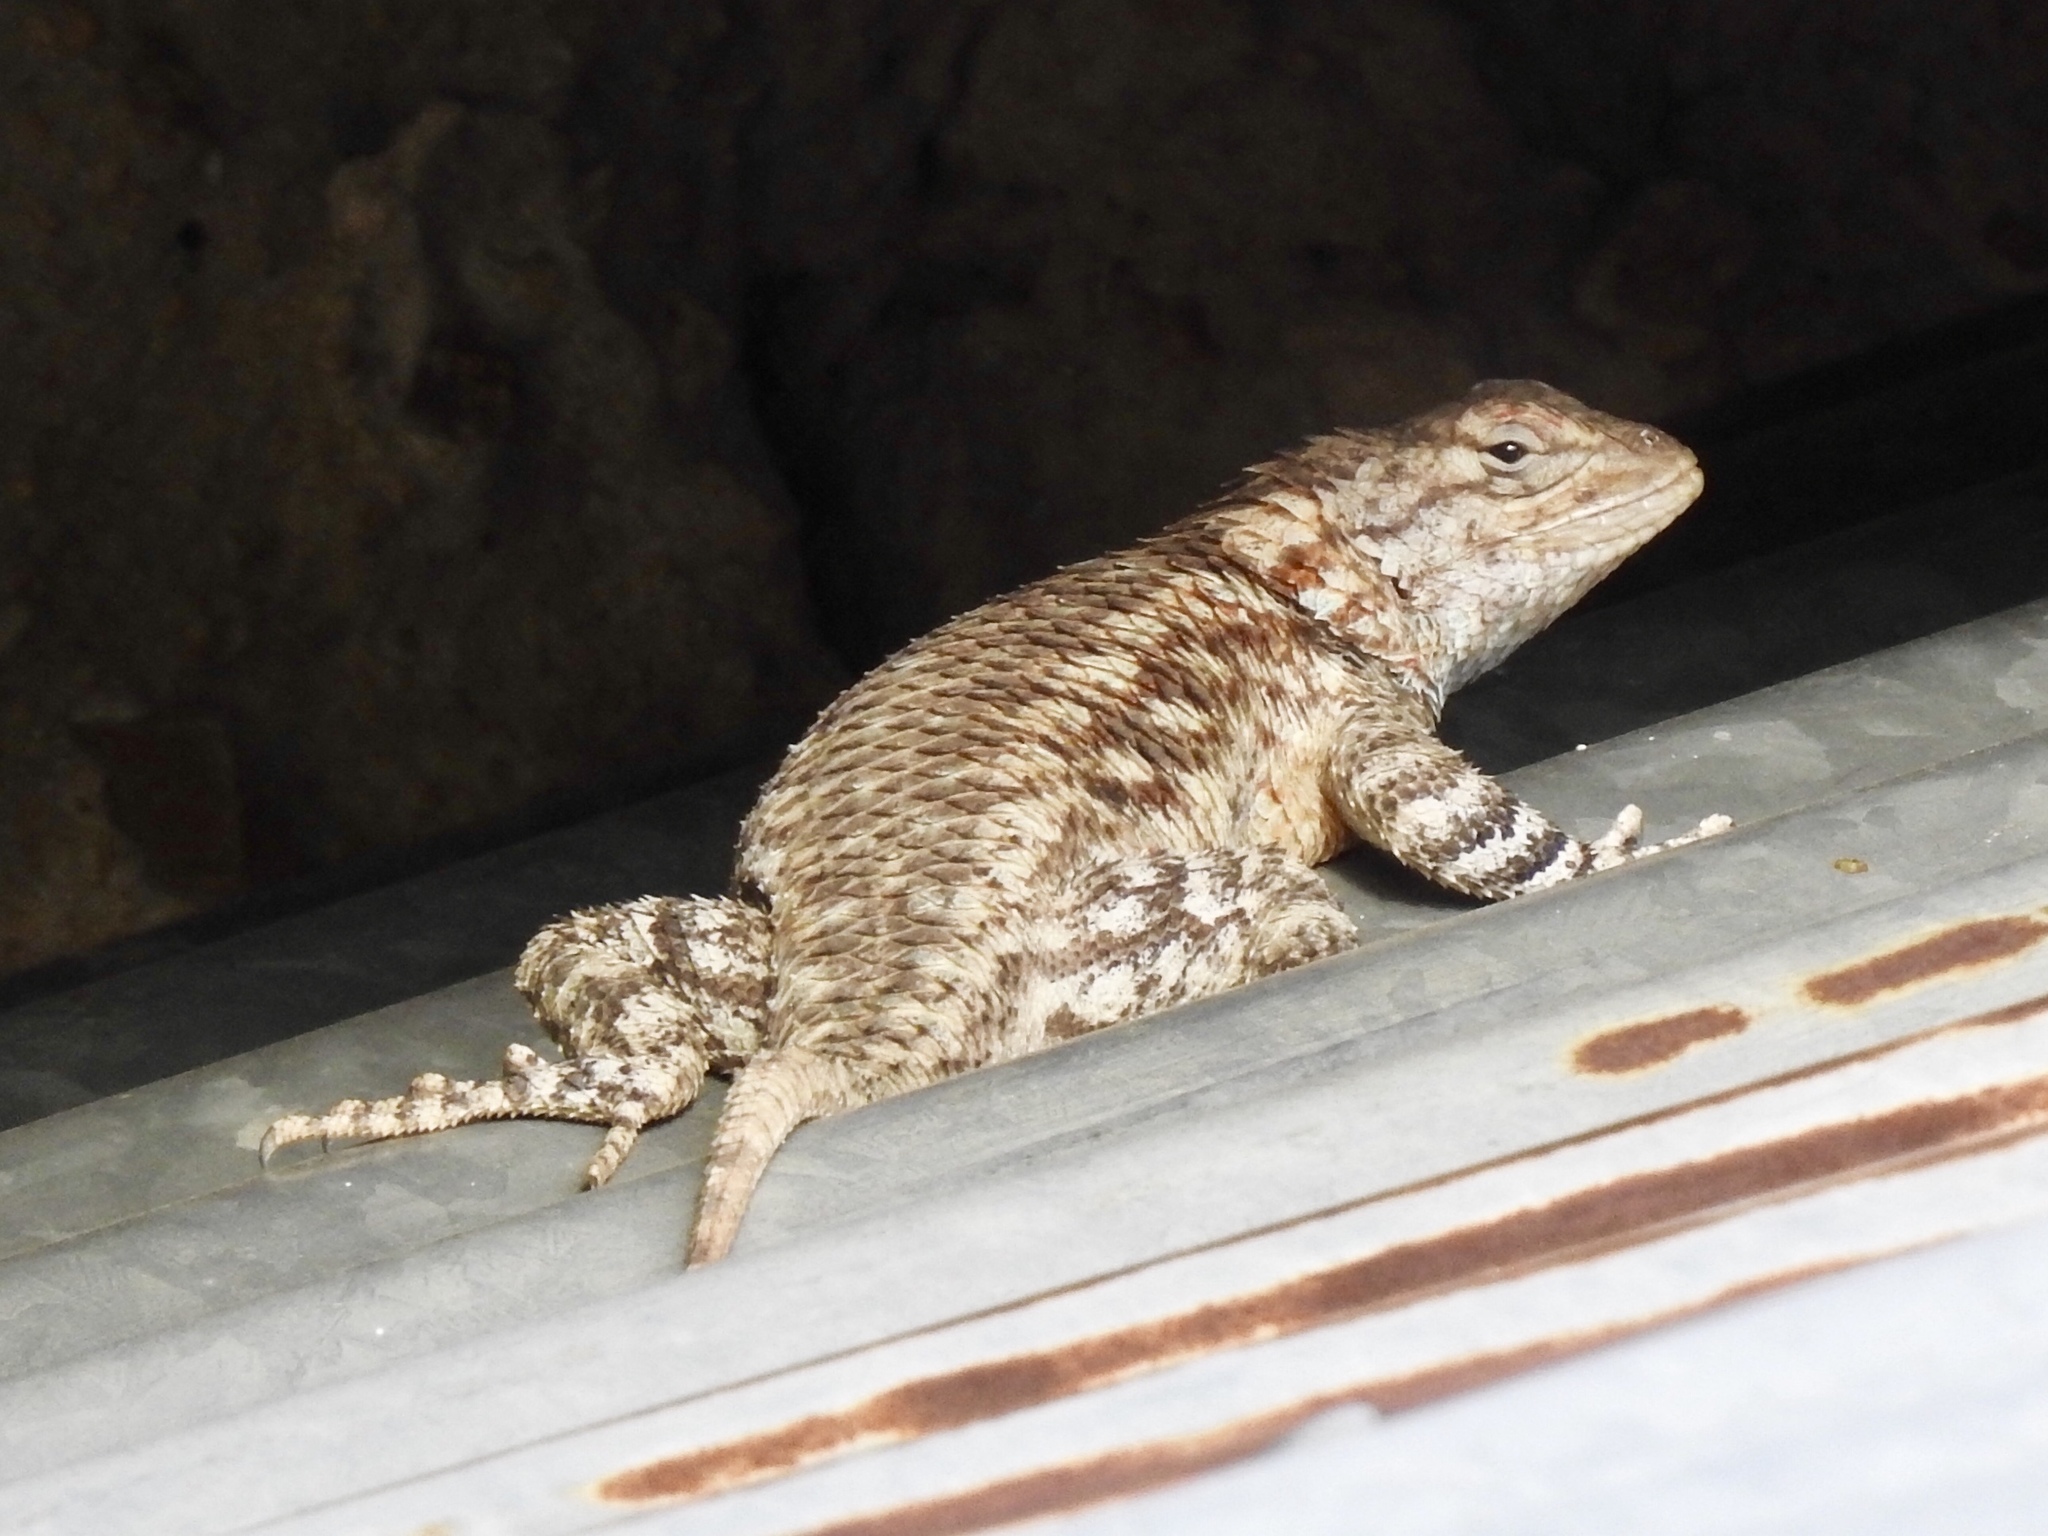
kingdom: Animalia
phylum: Chordata
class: Squamata
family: Phrynosomatidae
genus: Sceloporus
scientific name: Sceloporus clarkii
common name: Clark's spiny lizard
